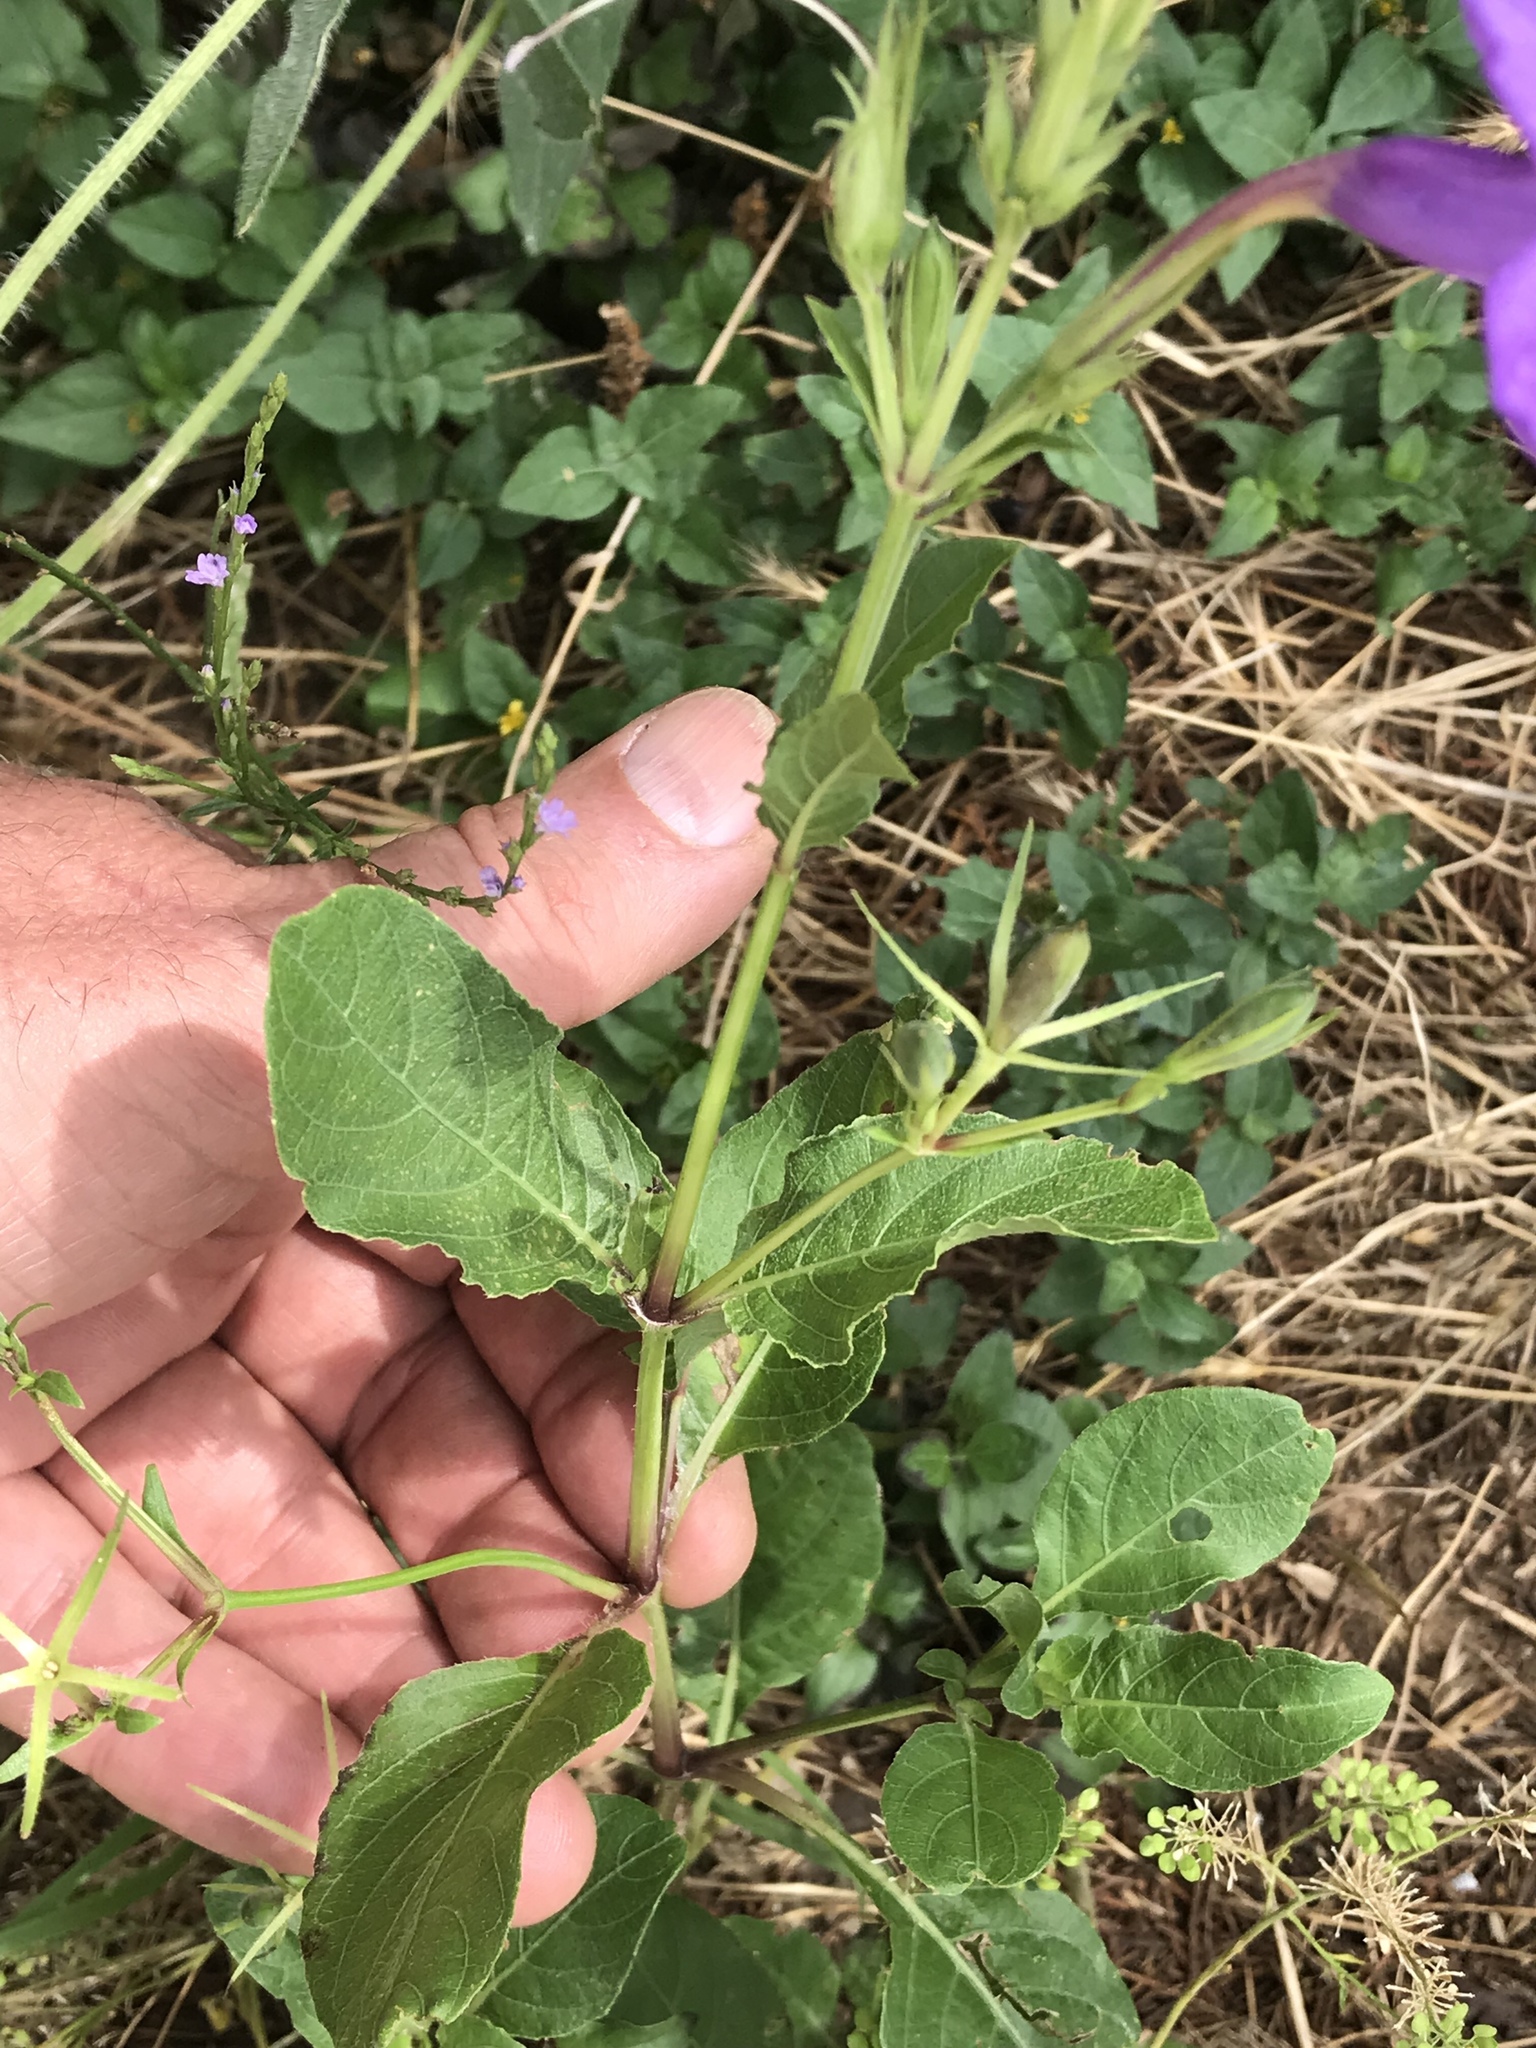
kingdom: Plantae
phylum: Tracheophyta
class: Magnoliopsida
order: Lamiales
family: Acanthaceae
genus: Ruellia
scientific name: Ruellia ciliatiflora
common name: Hairyflower wild petunia
